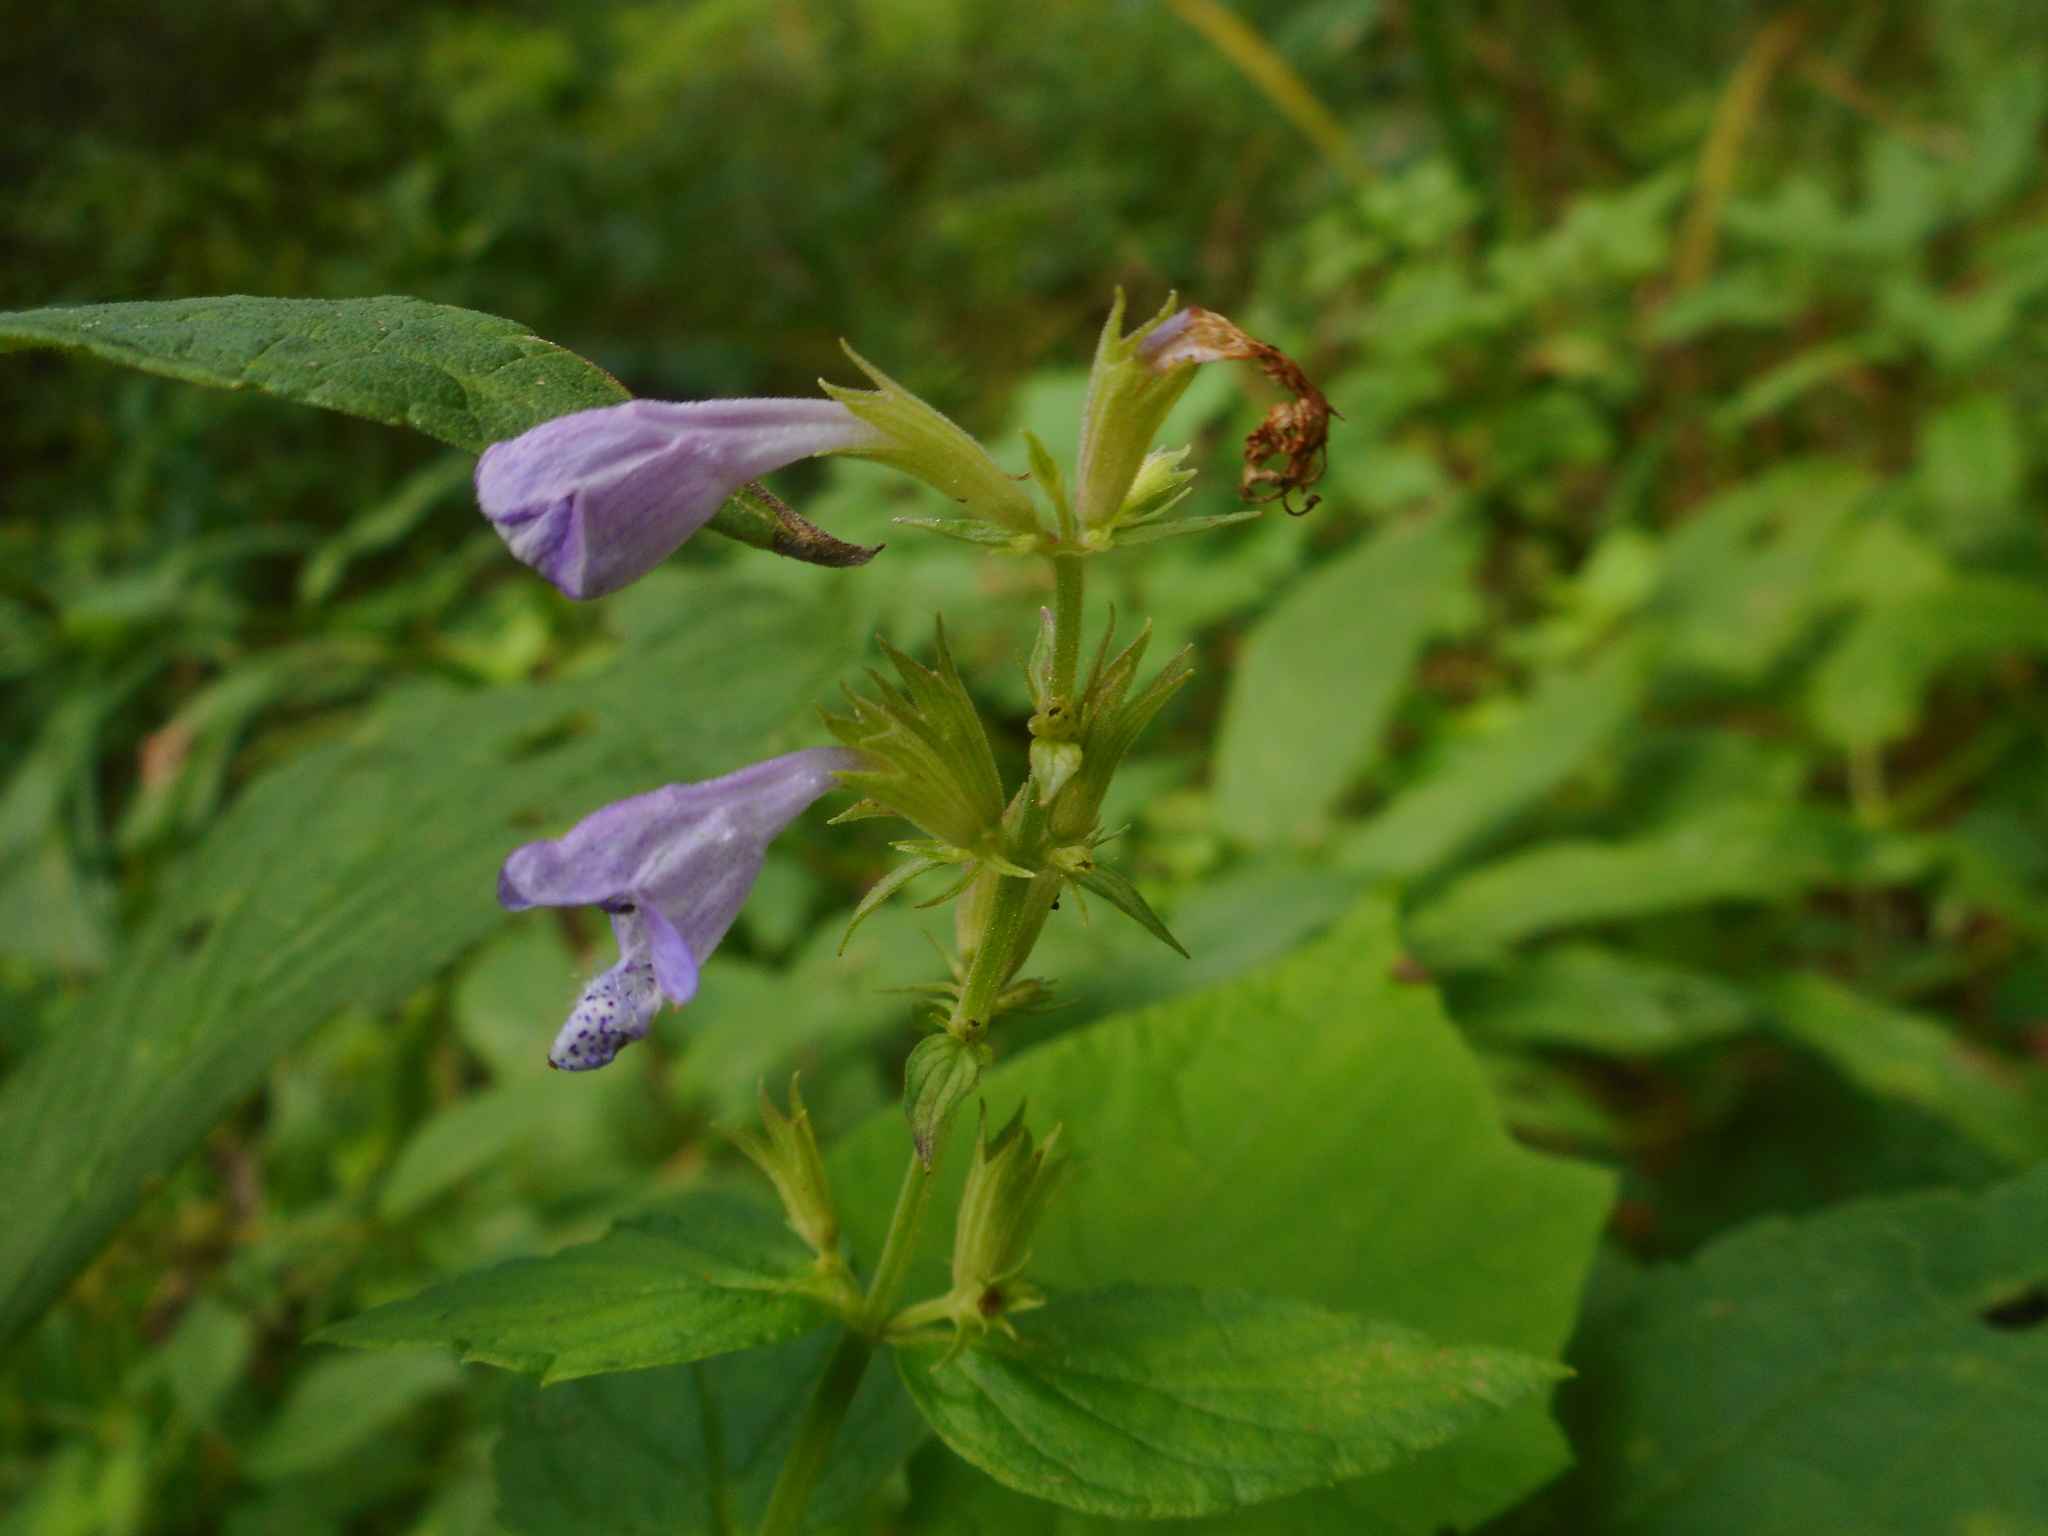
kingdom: Plantae
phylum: Tracheophyta
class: Magnoliopsida
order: Lamiales
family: Lamiaceae
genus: Nepeta
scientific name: Nepeta manchuriensis
